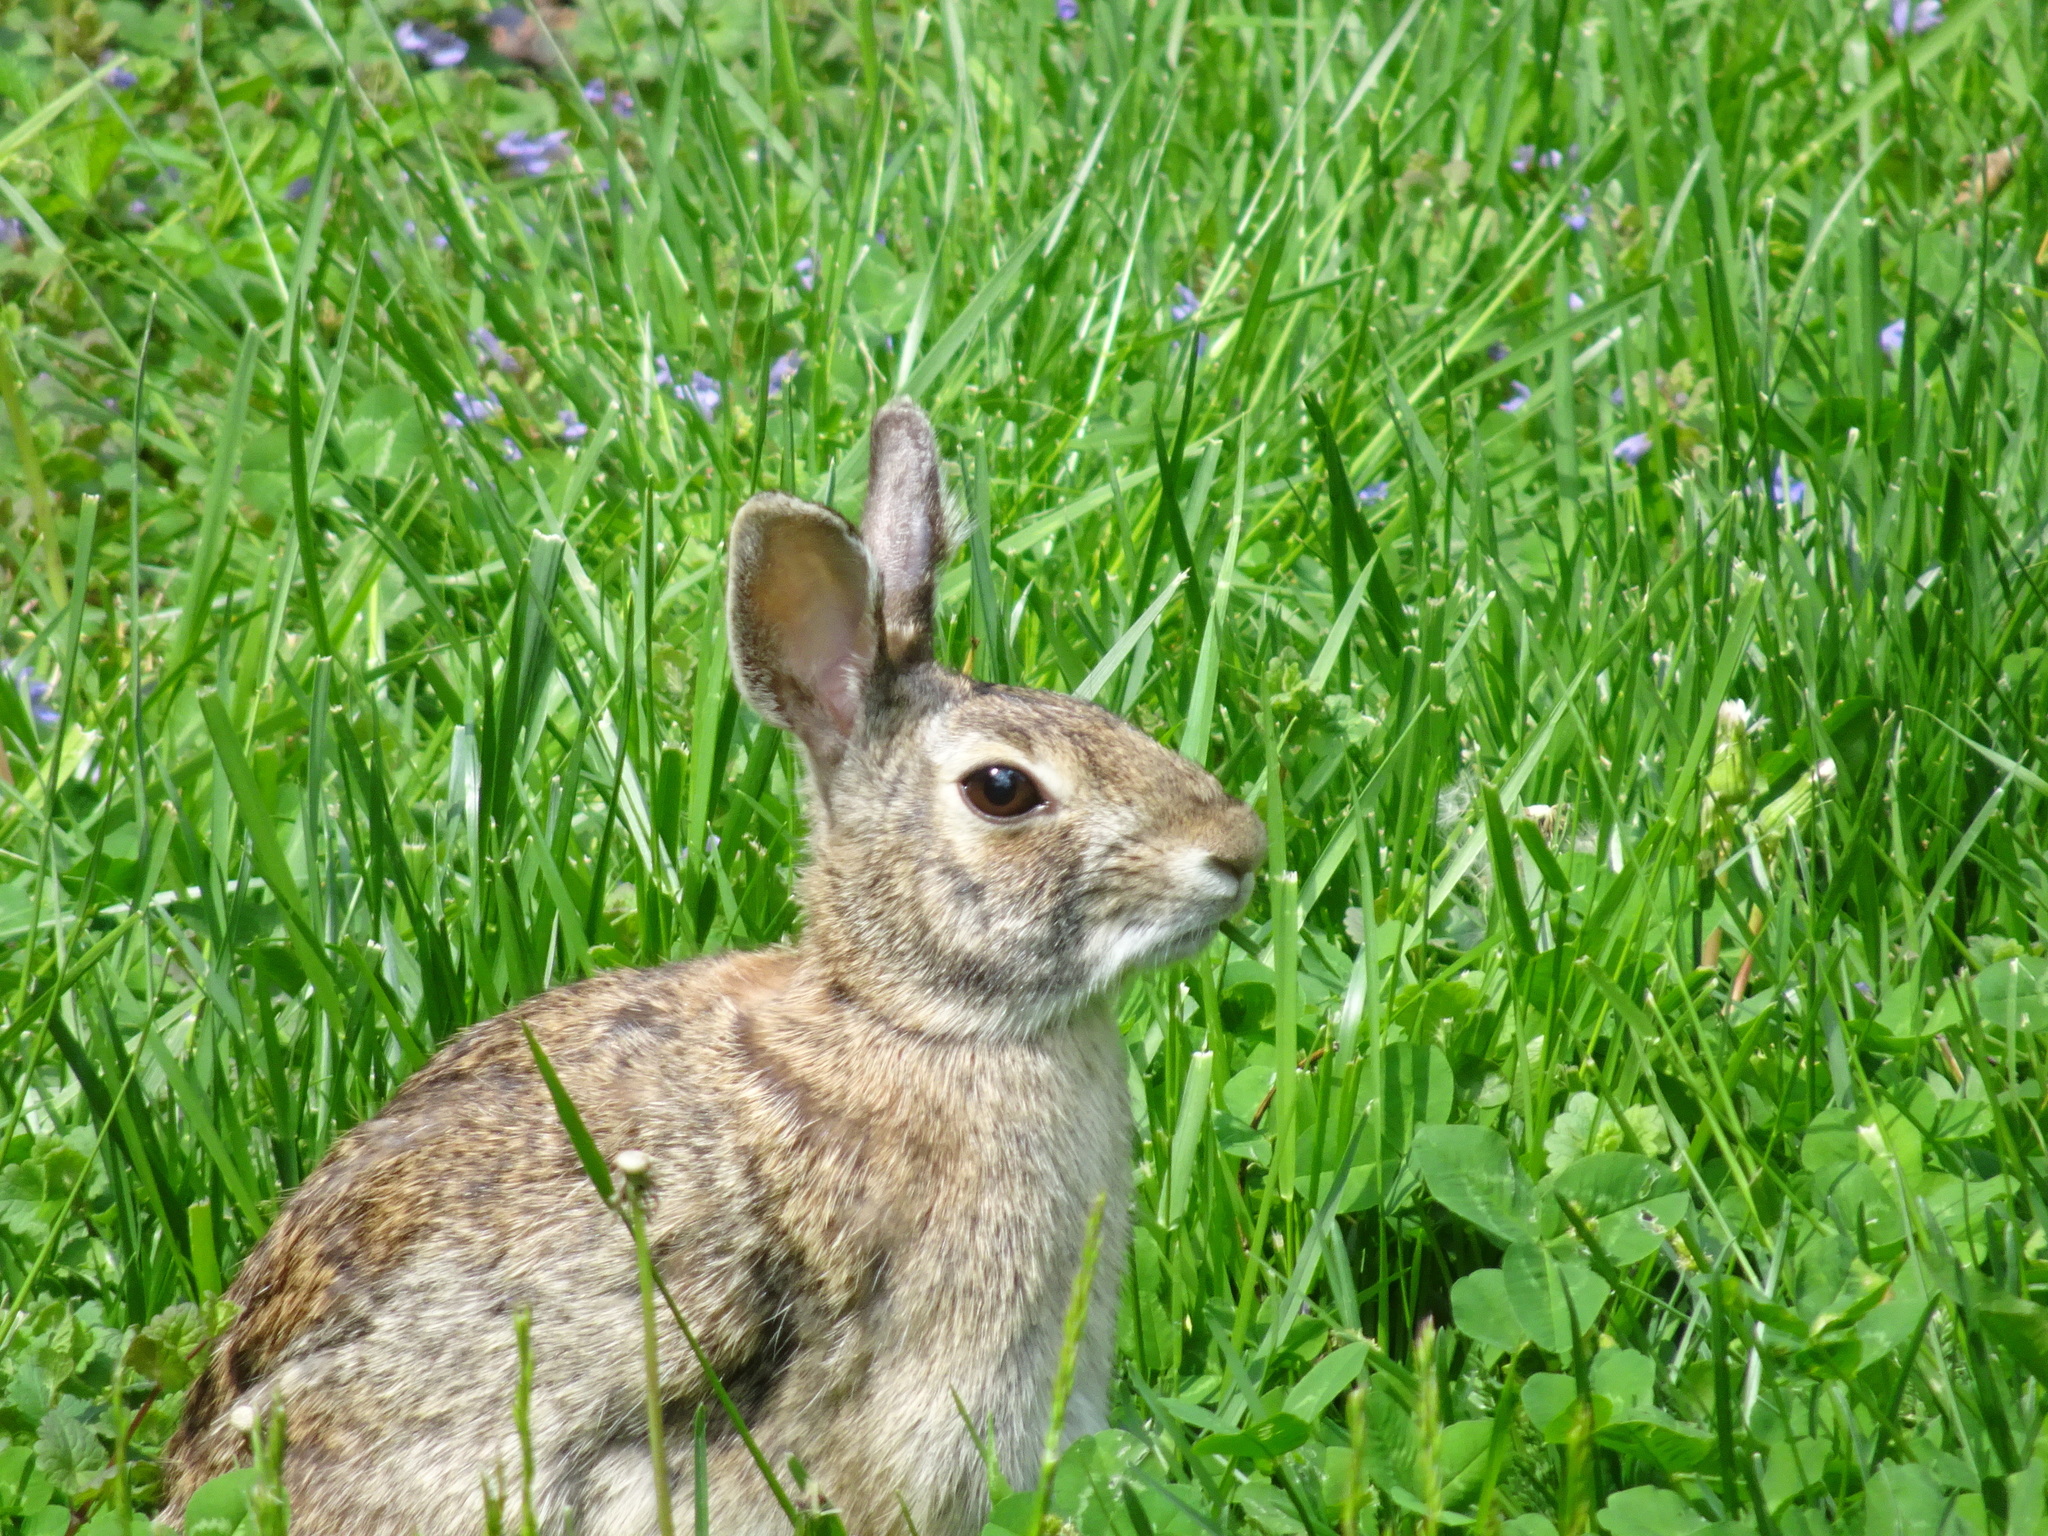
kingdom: Animalia
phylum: Chordata
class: Mammalia
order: Lagomorpha
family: Leporidae
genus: Sylvilagus
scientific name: Sylvilagus floridanus
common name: Eastern cottontail
